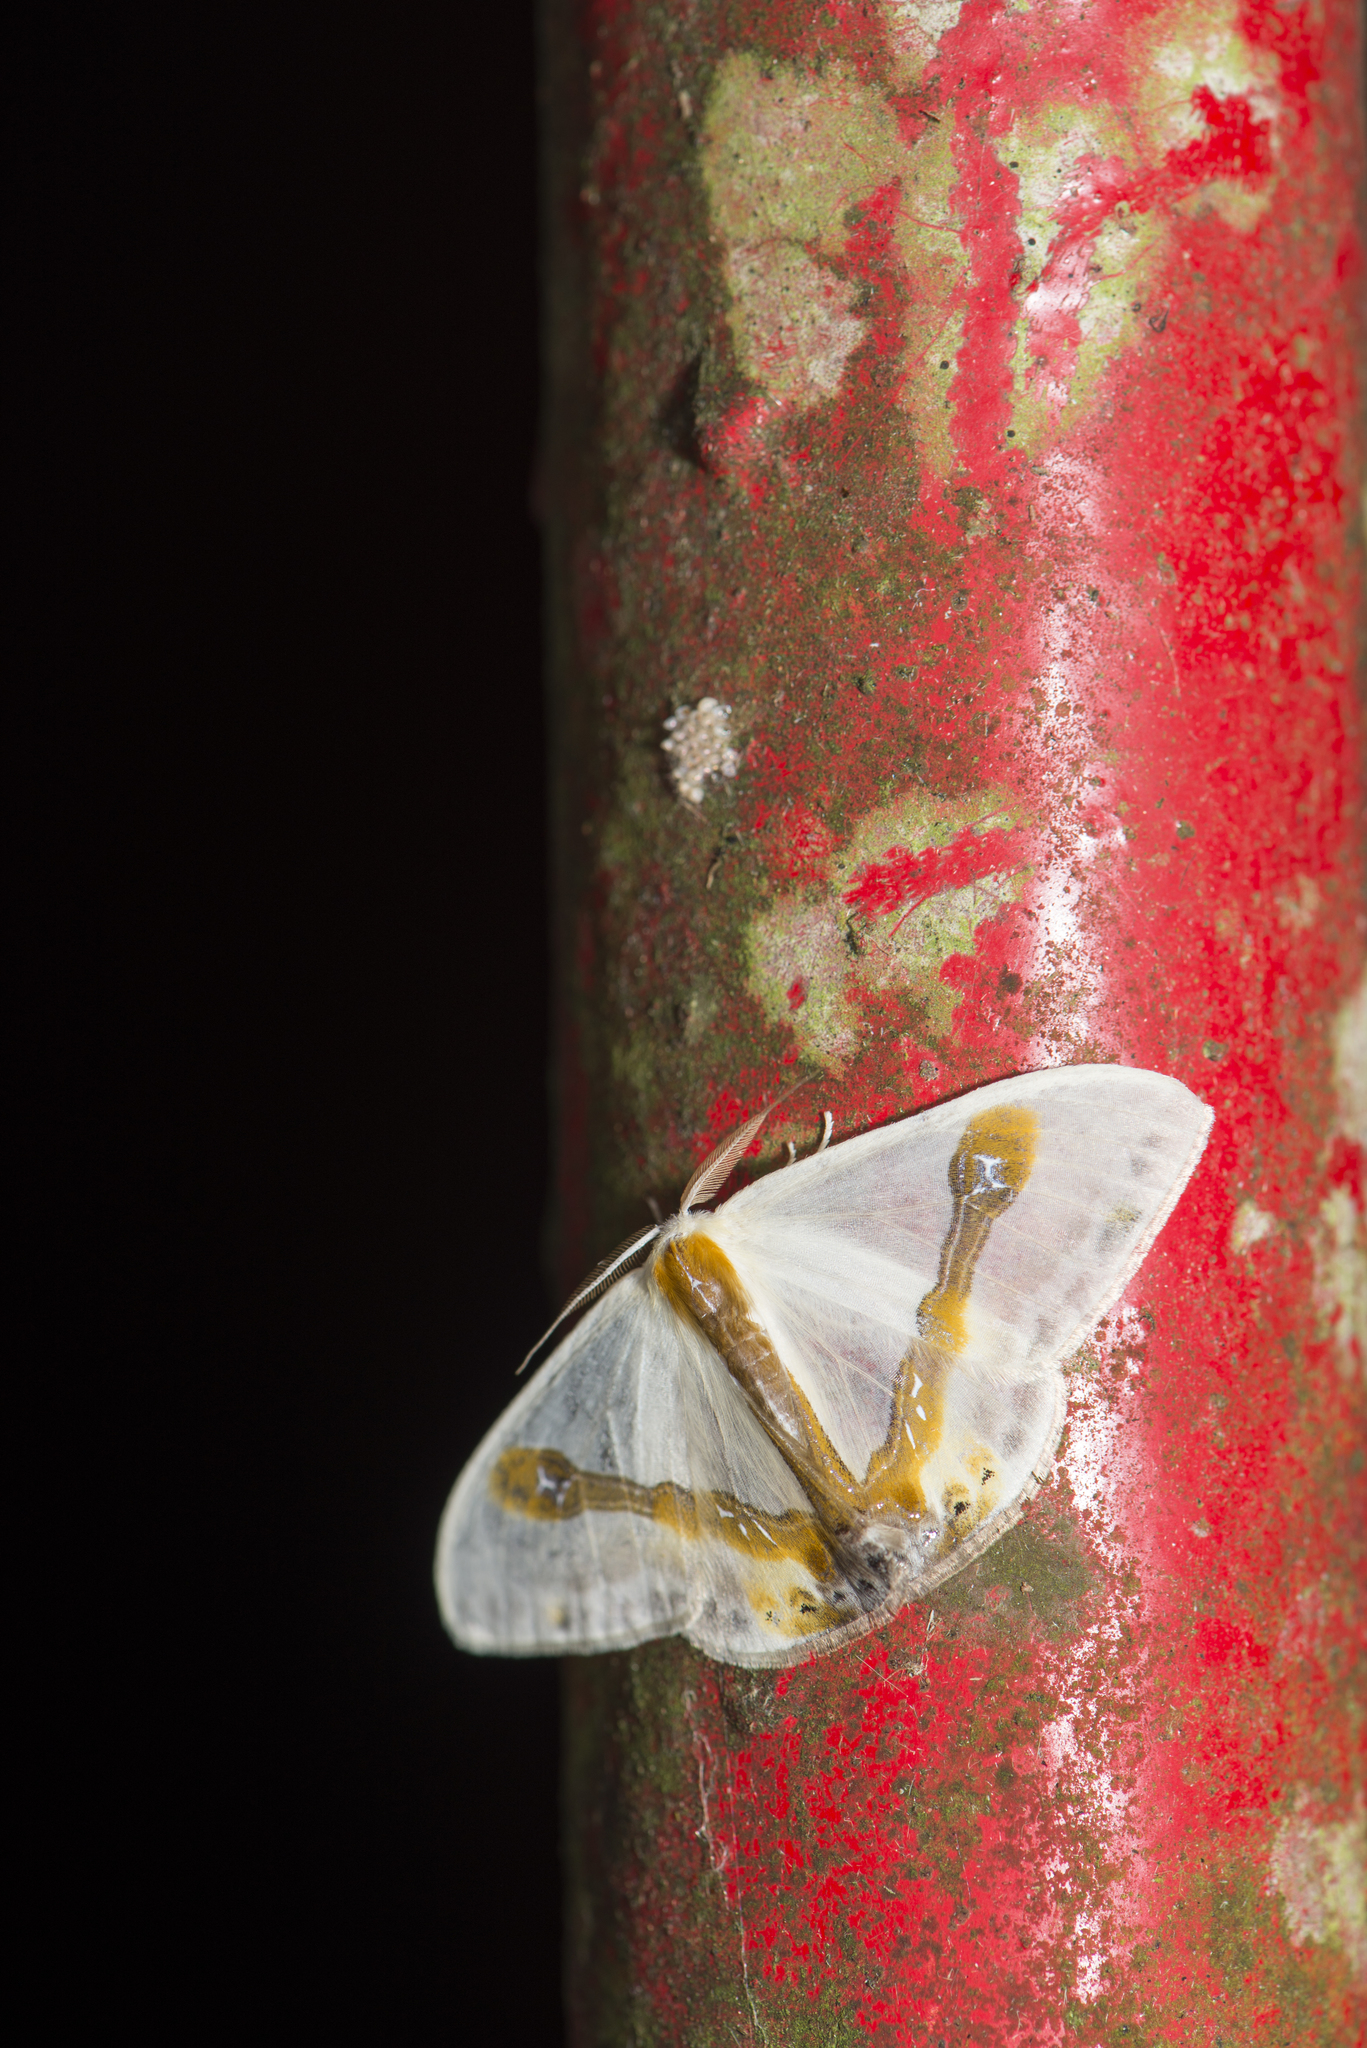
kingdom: Animalia
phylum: Arthropoda
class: Insecta
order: Lepidoptera
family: Drepanidae
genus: Macrocilix
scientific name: Macrocilix mysticata
